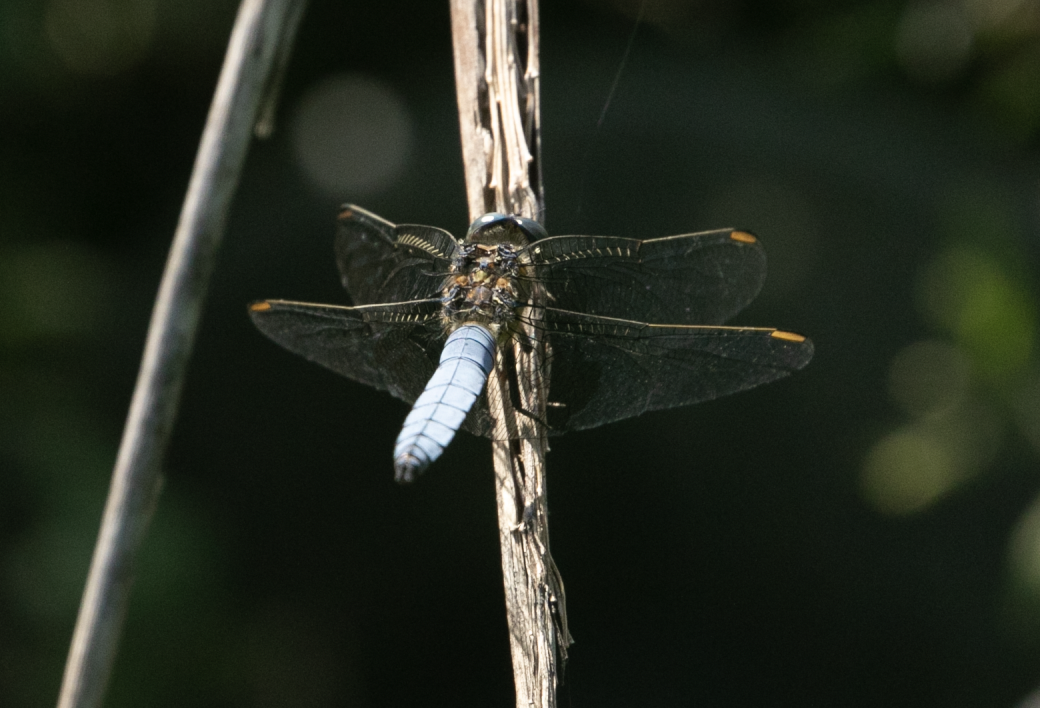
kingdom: Animalia
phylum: Arthropoda
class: Insecta
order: Odonata
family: Libellulidae
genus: Orthetrum
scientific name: Orthetrum coerulescens
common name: Keeled skimmer
